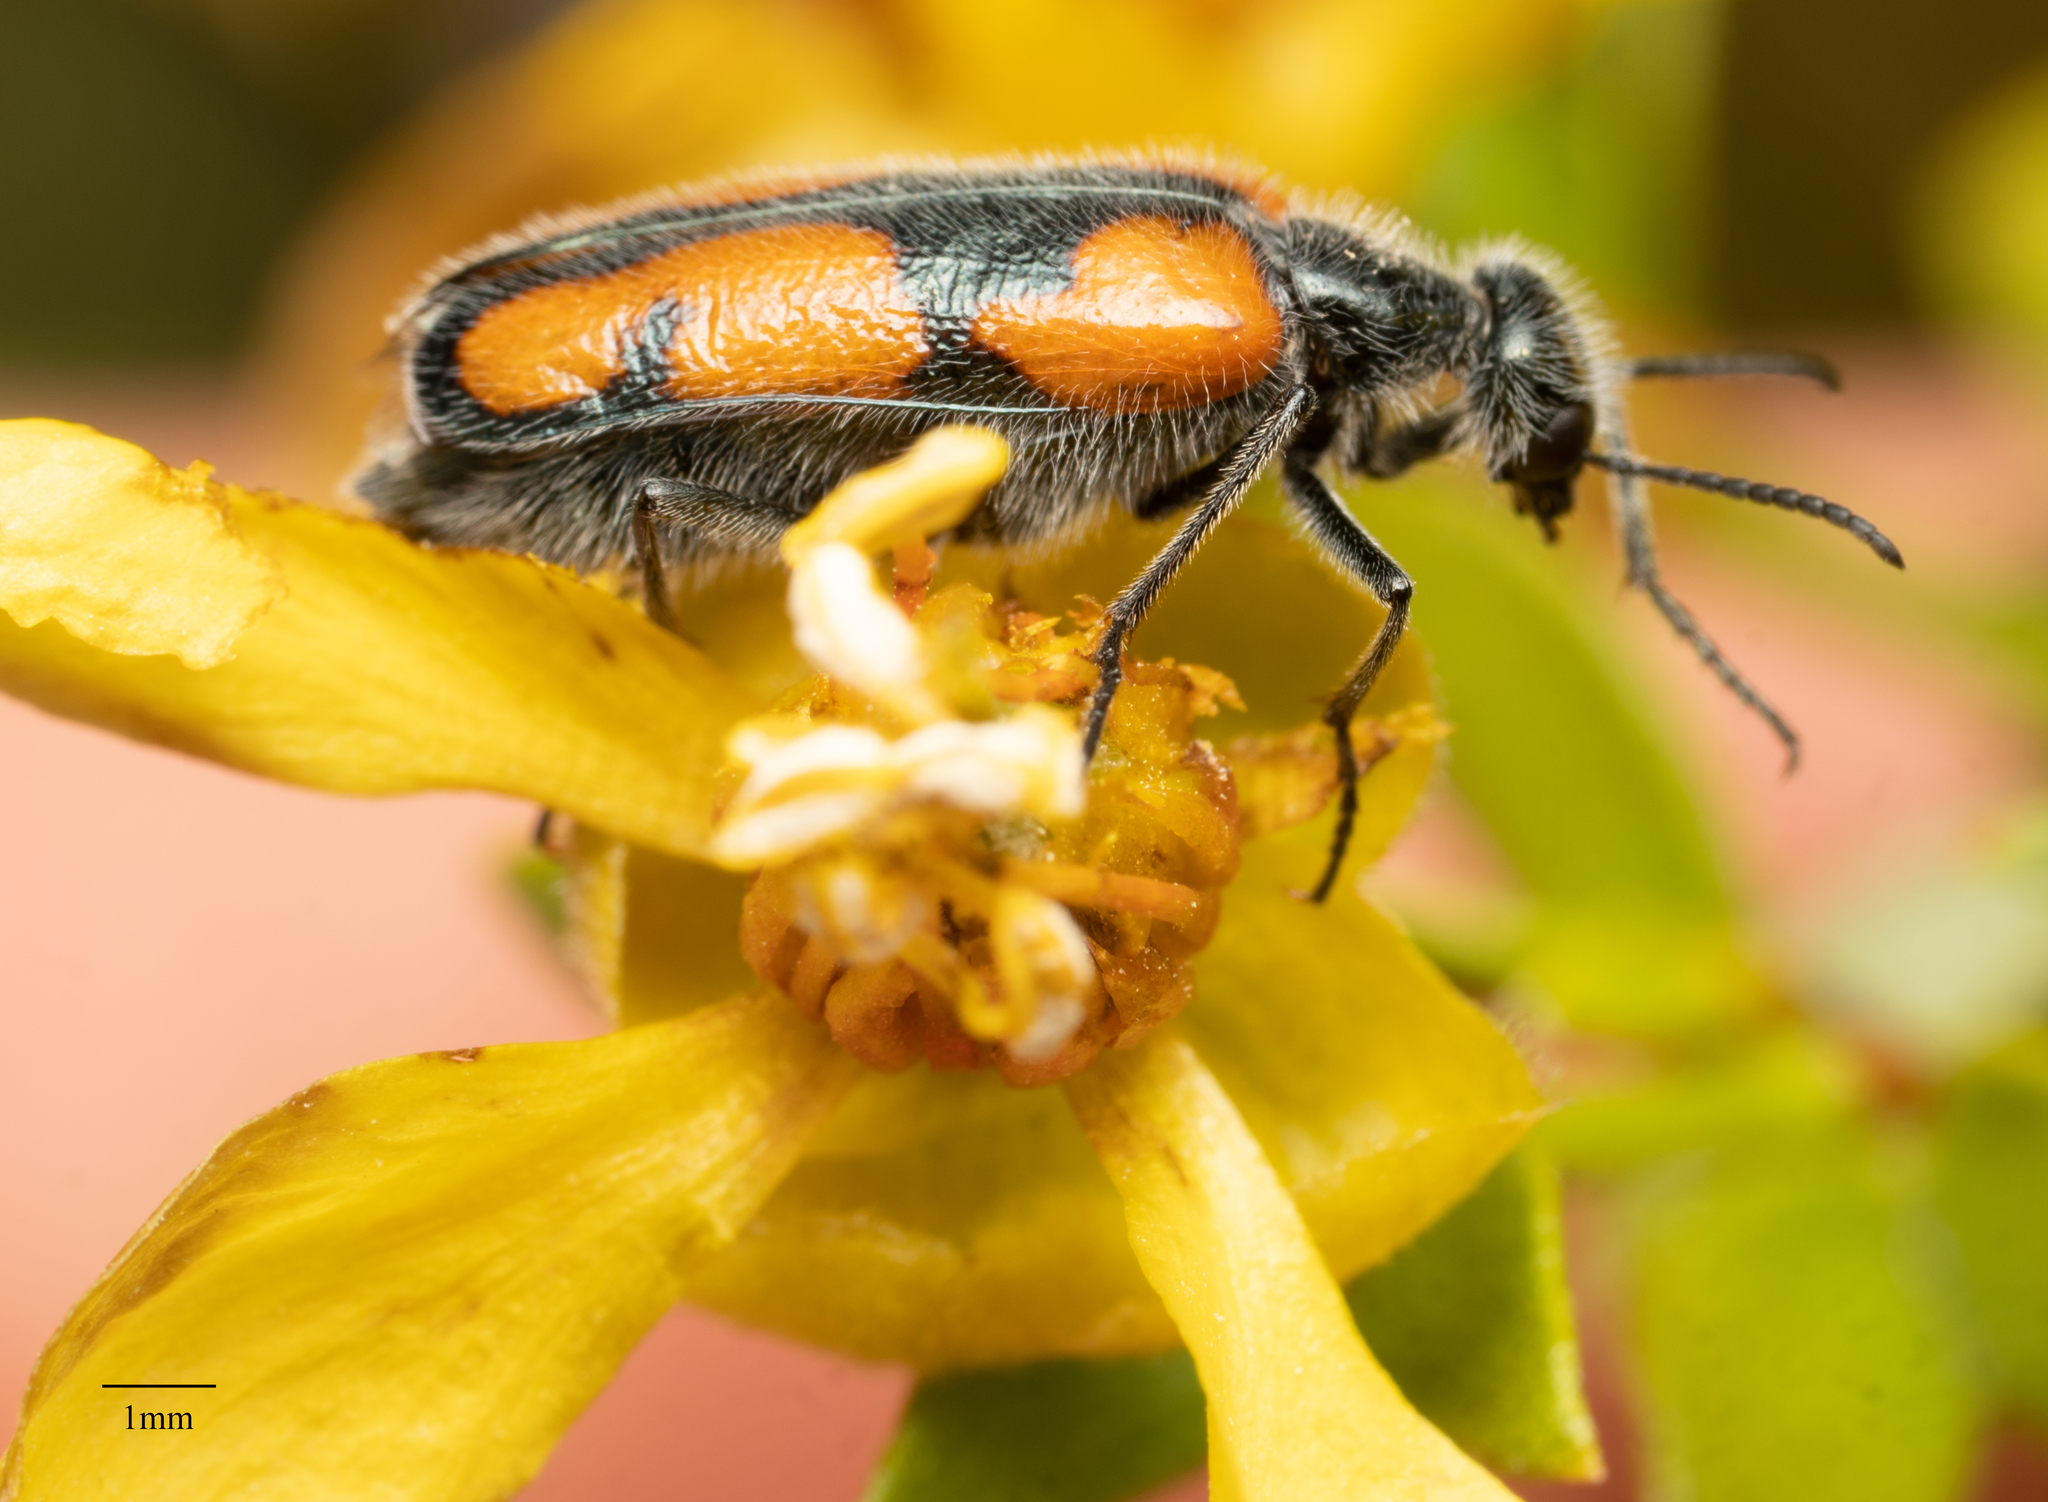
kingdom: Animalia
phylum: Arthropoda
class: Insecta
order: Coleoptera
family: Meloidae
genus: Eupompha
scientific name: Eupompha elegans
